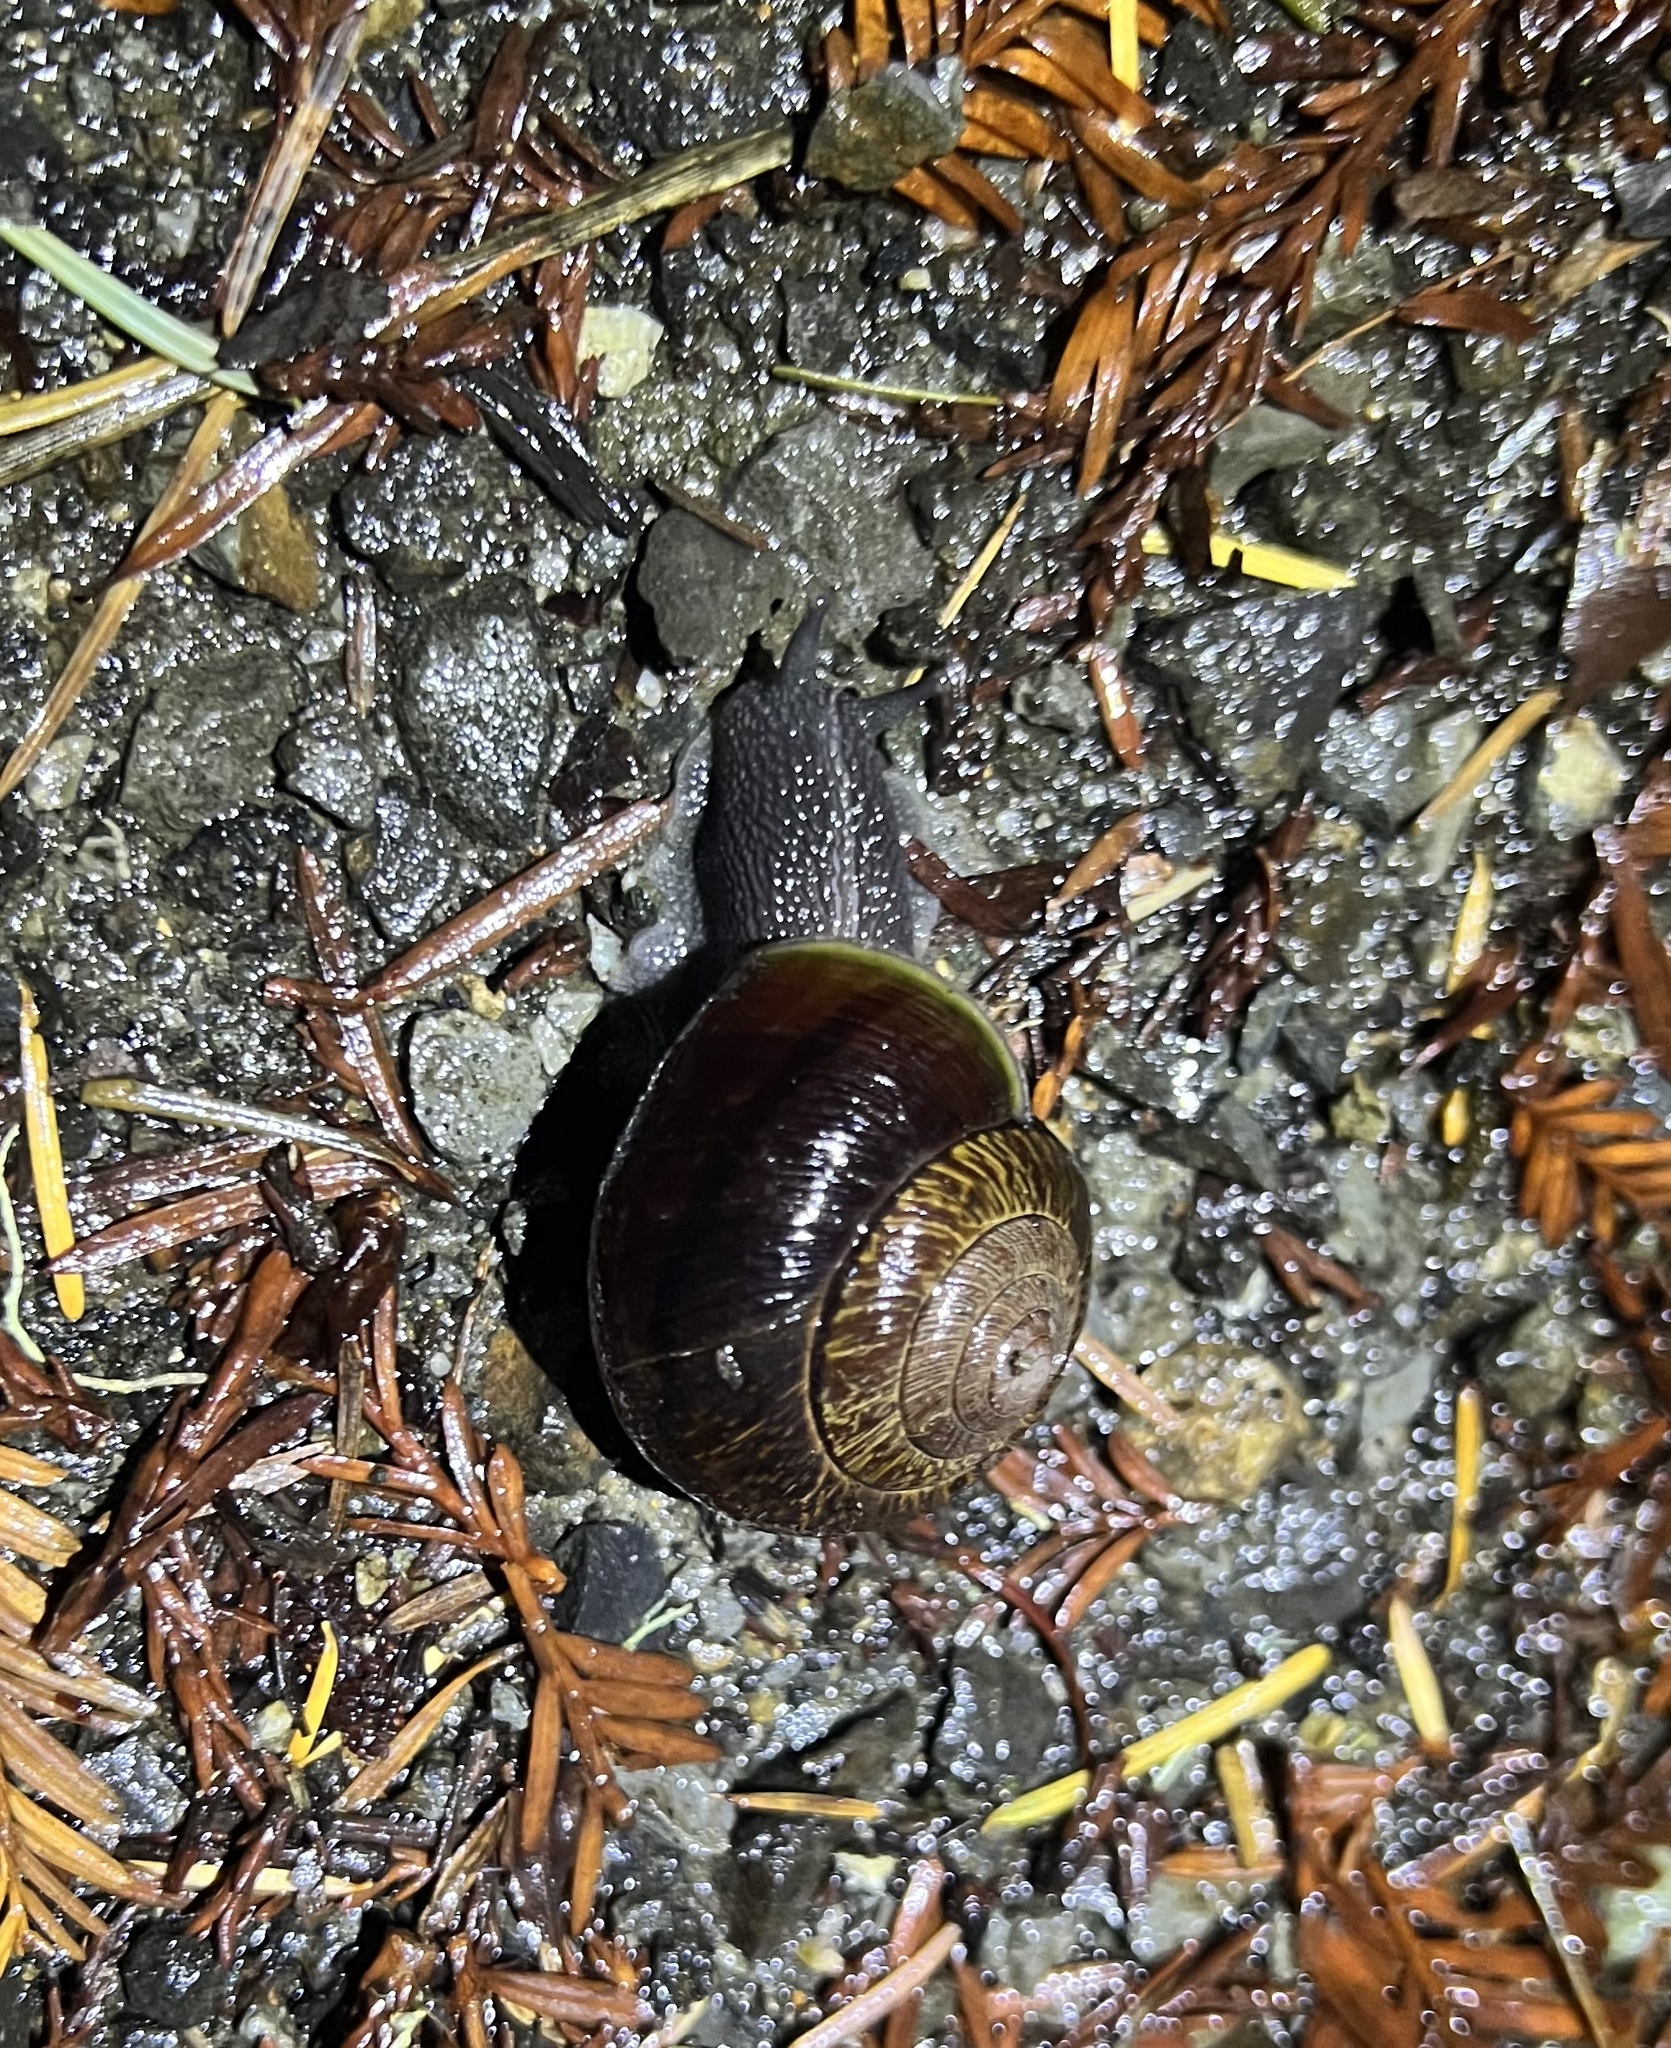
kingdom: Animalia
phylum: Mollusca
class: Gastropoda
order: Stylommatophora
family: Xanthonychidae
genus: Helminthoglypta
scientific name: Helminthoglypta arrosa
